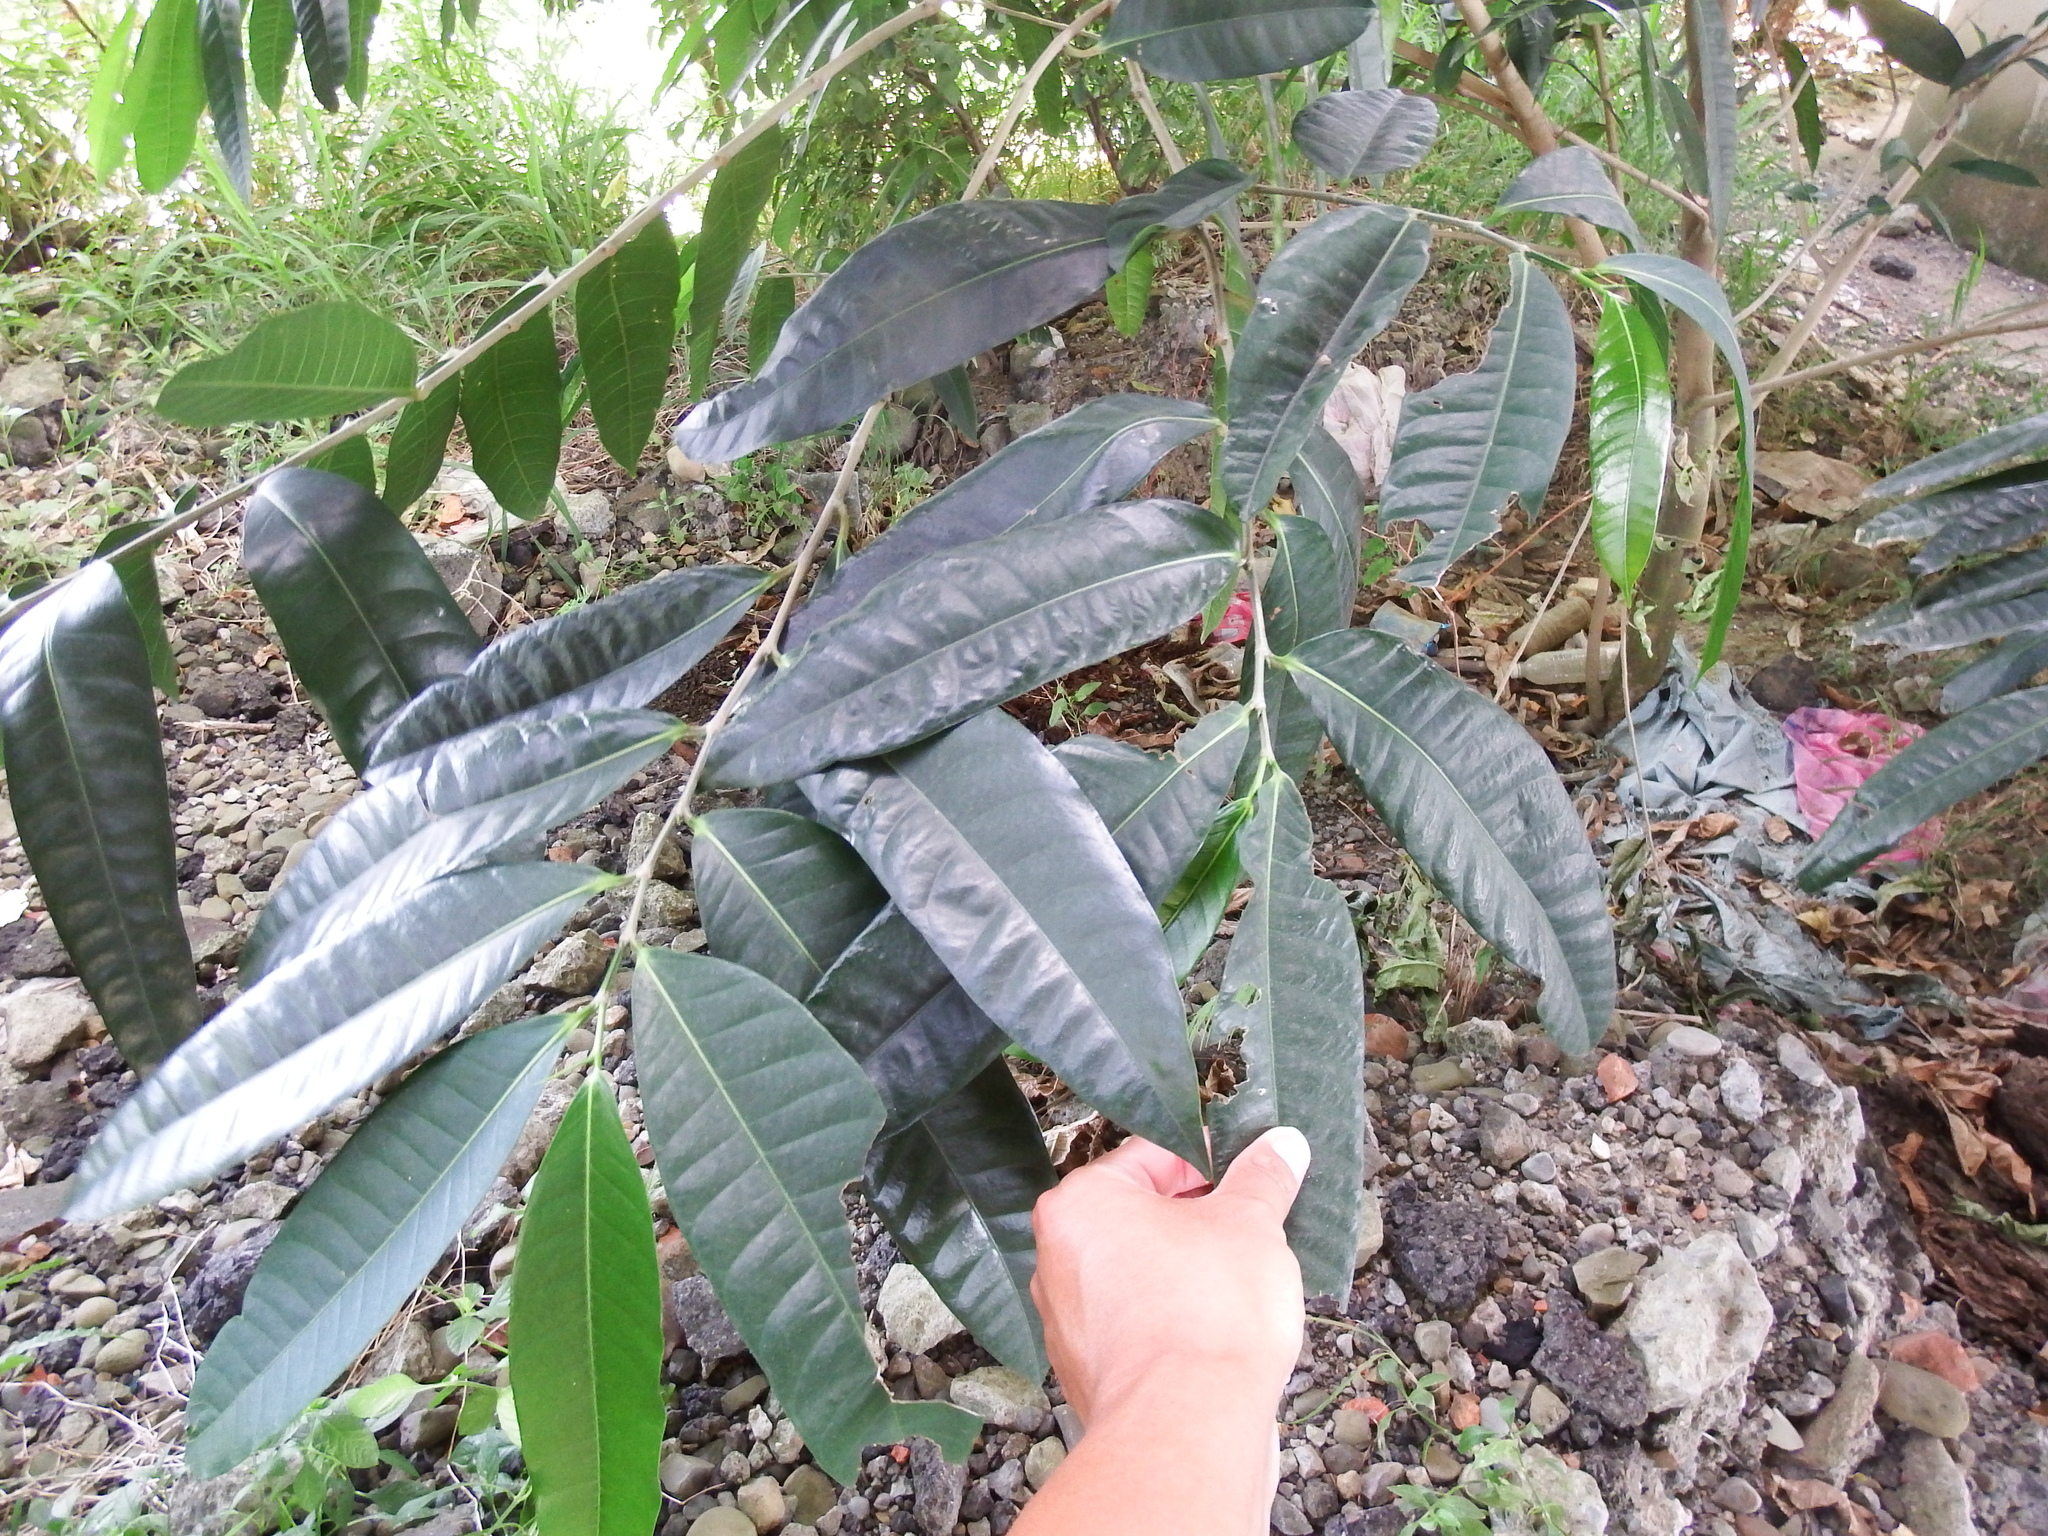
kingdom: Plantae
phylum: Tracheophyta
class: Magnoliopsida
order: Rosales
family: Moraceae
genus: Ficus
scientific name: Ficus virgata
